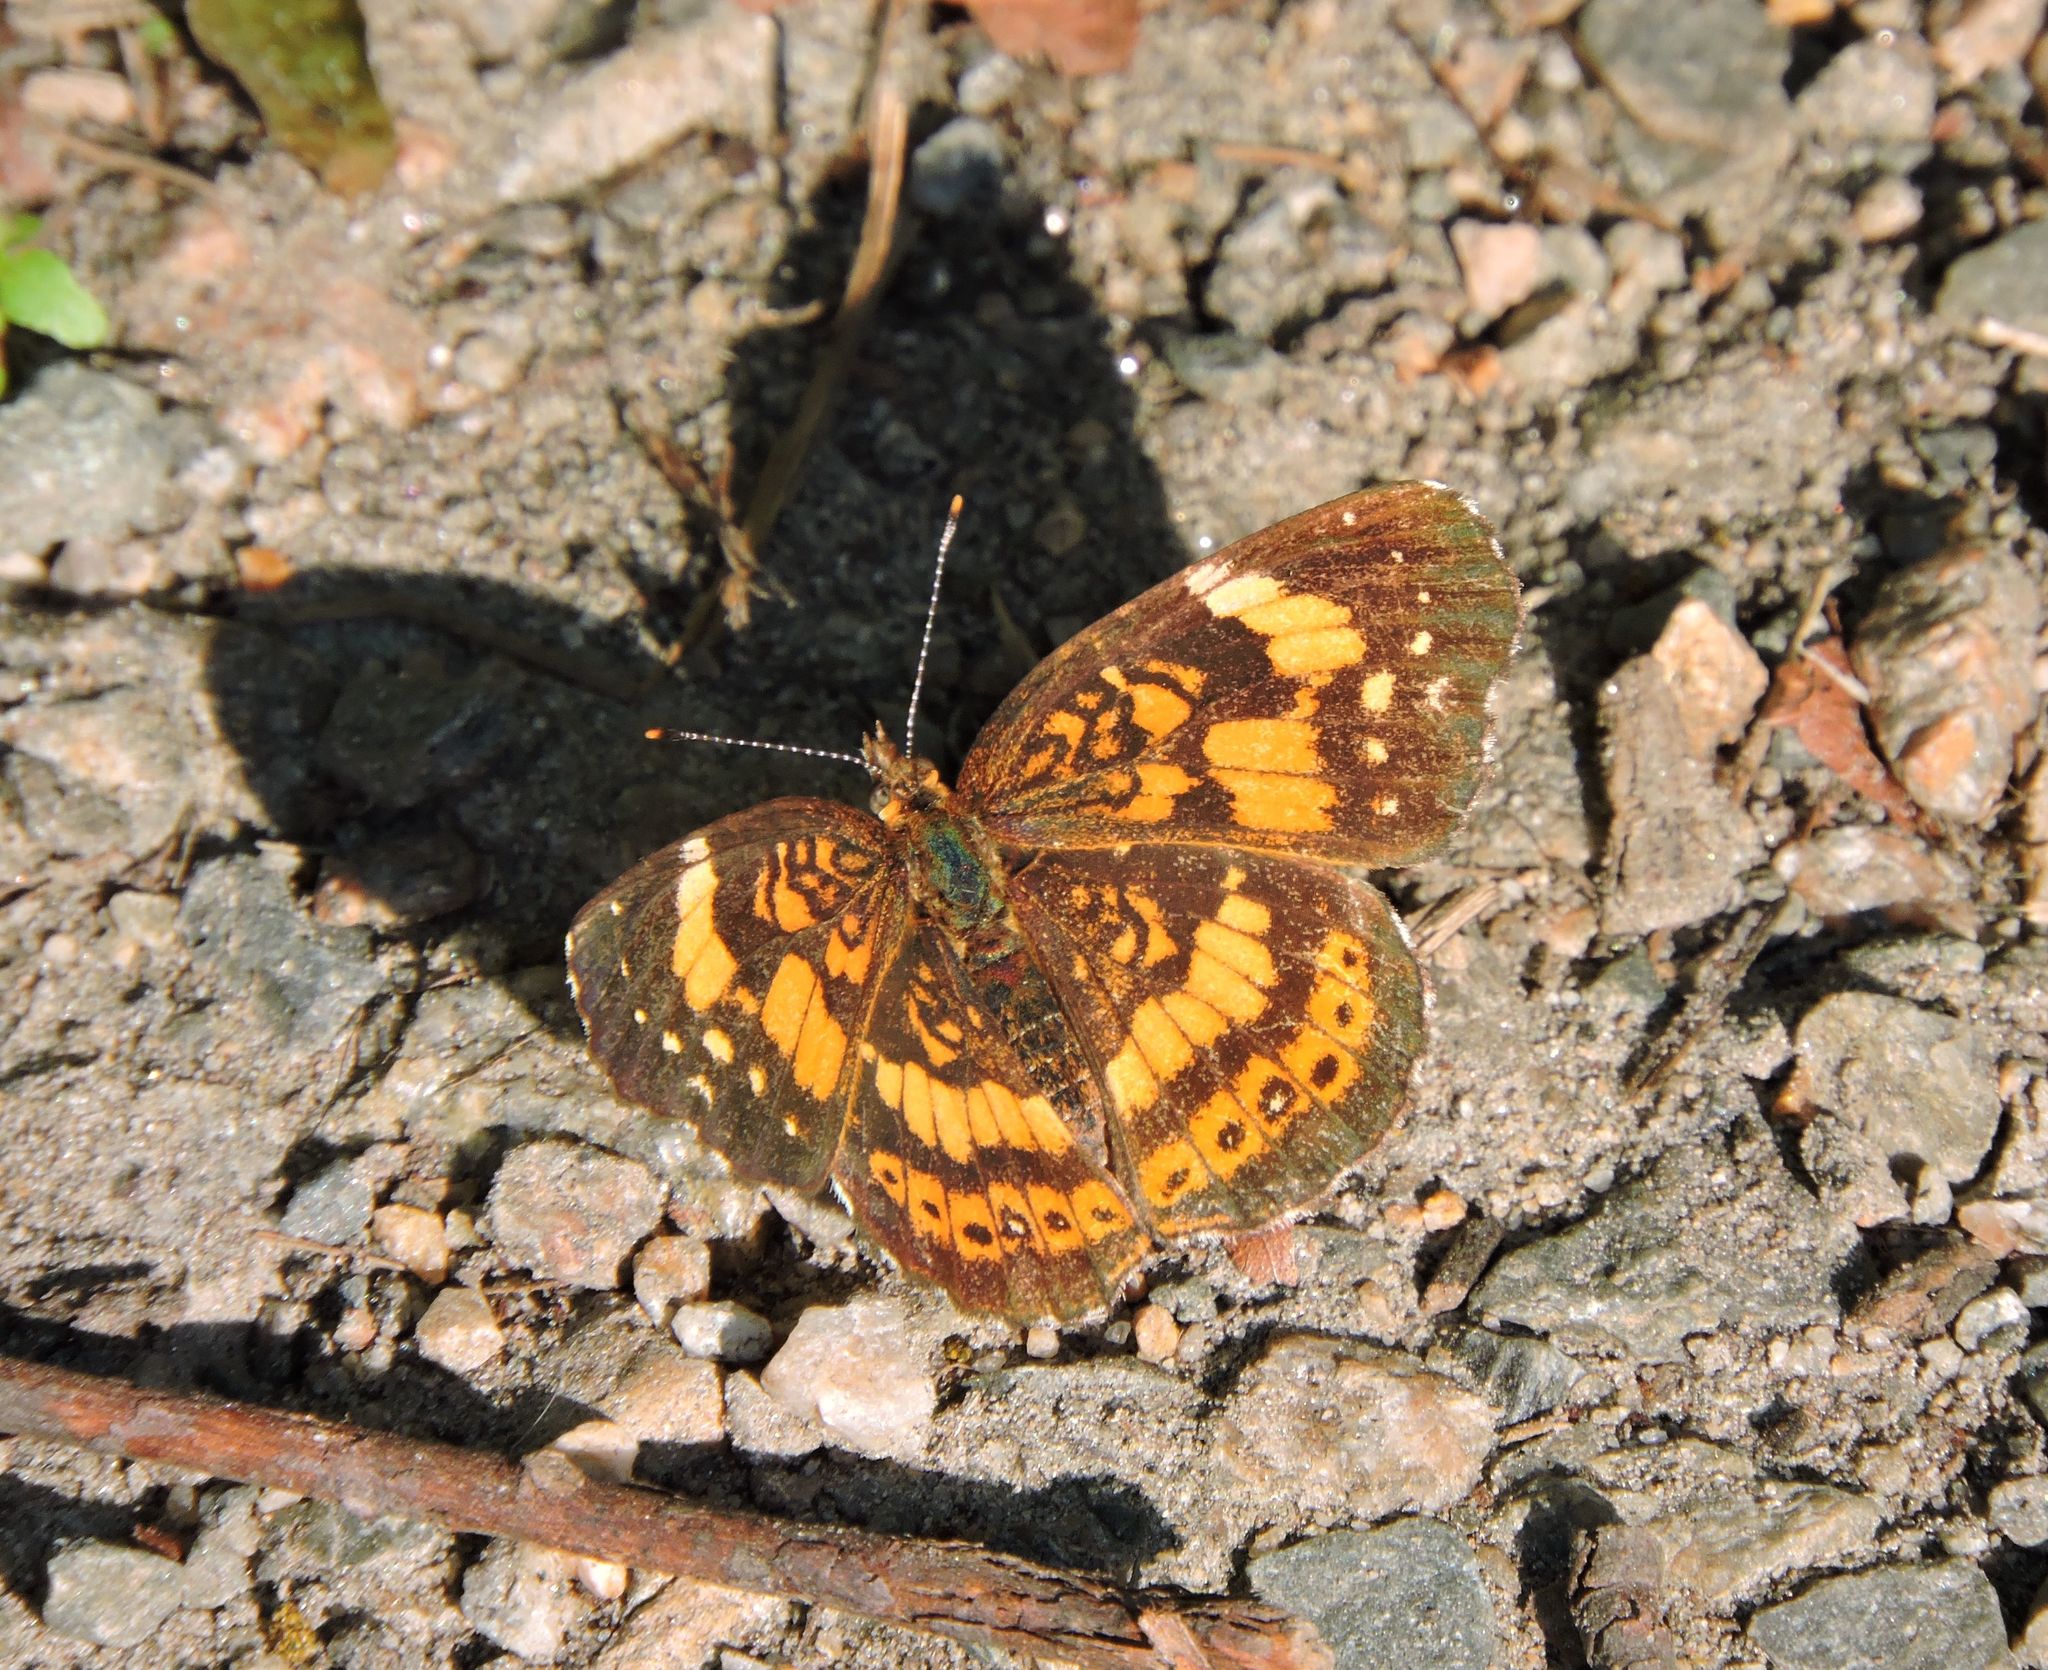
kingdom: Animalia
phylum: Arthropoda
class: Insecta
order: Lepidoptera
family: Nymphalidae
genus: Chlosyne
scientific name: Chlosyne nycteis
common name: Silvery checkerspot
